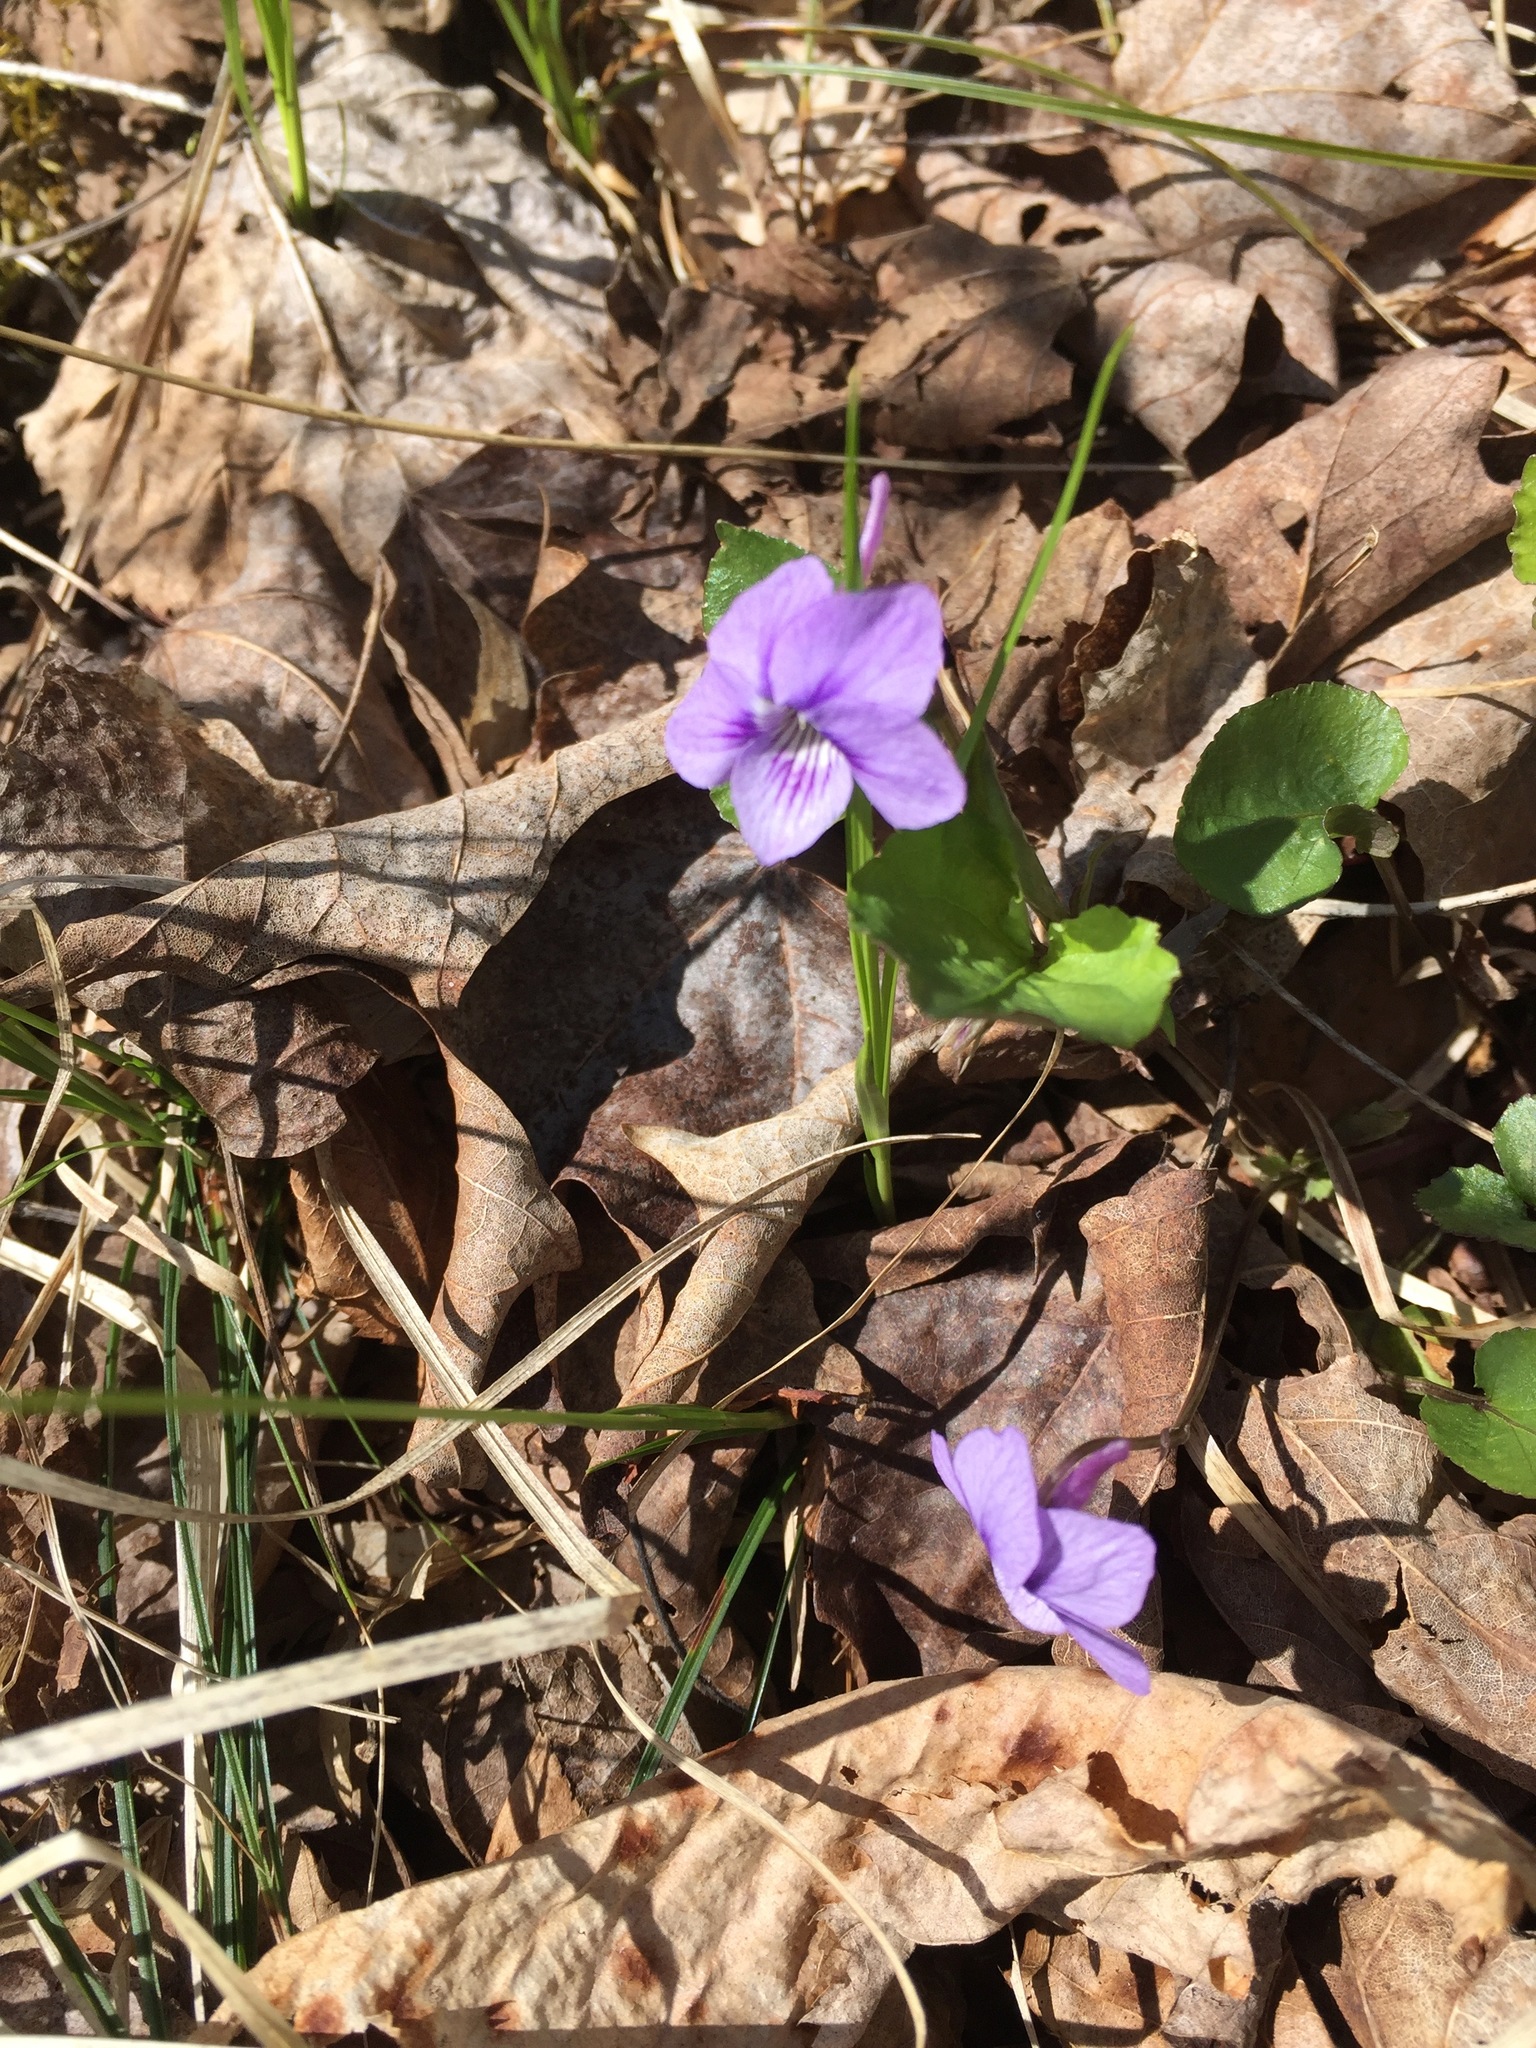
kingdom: Plantae
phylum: Tracheophyta
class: Magnoliopsida
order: Malpighiales
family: Violaceae
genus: Viola
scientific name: Viola rostrata
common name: Long-spur violet
